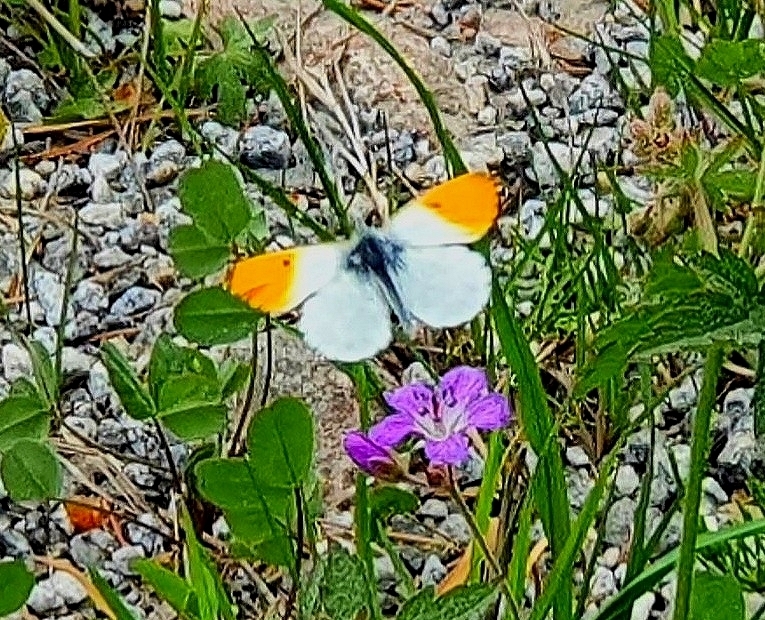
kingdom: Animalia
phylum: Arthropoda
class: Insecta
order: Lepidoptera
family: Pieridae
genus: Anthocharis
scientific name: Anthocharis cardamines
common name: Orange-tip
